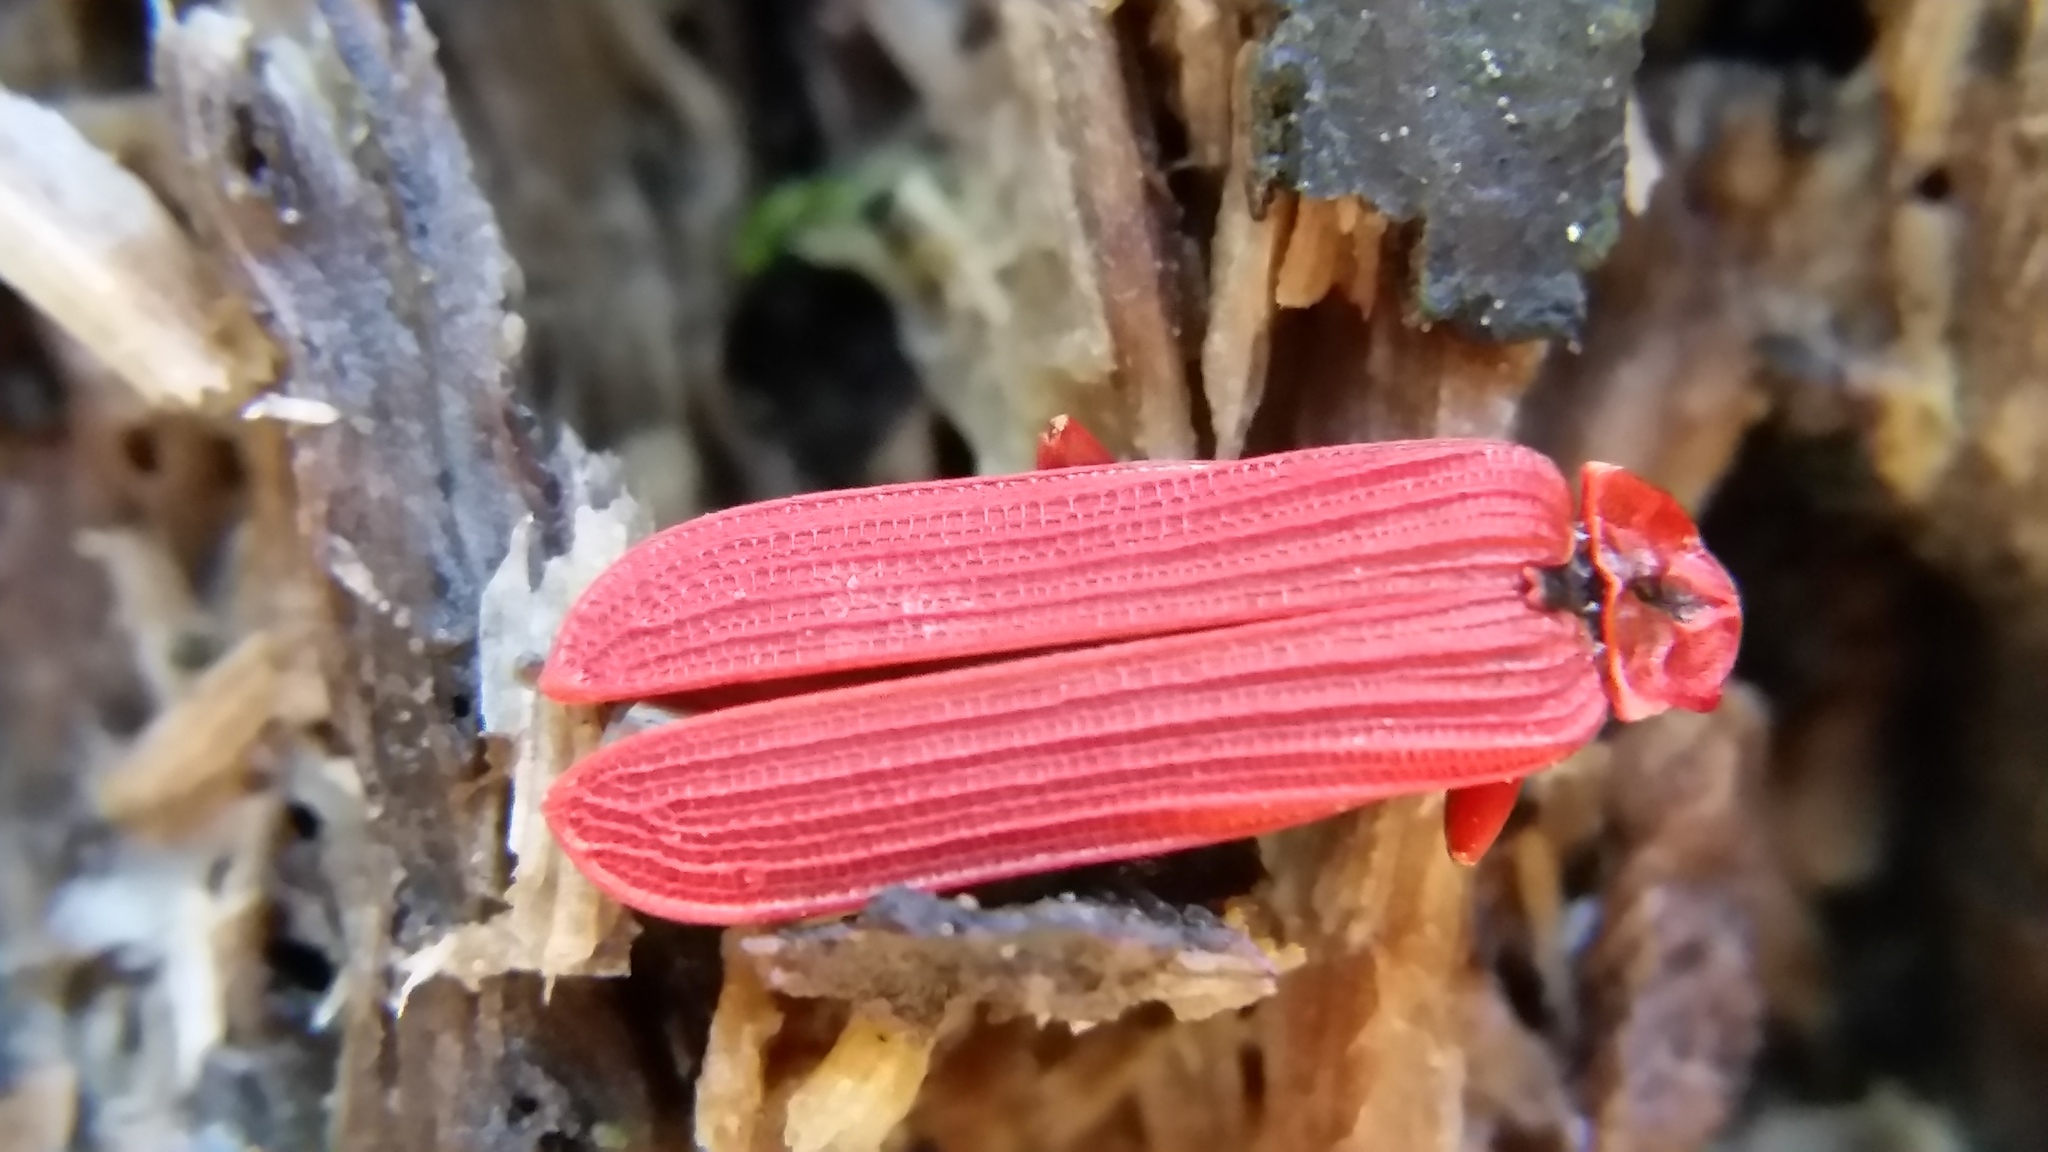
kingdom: Animalia
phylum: Arthropoda
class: Insecta
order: Coleoptera
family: Lycidae
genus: Dictyoptera
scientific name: Dictyoptera simplicipes
